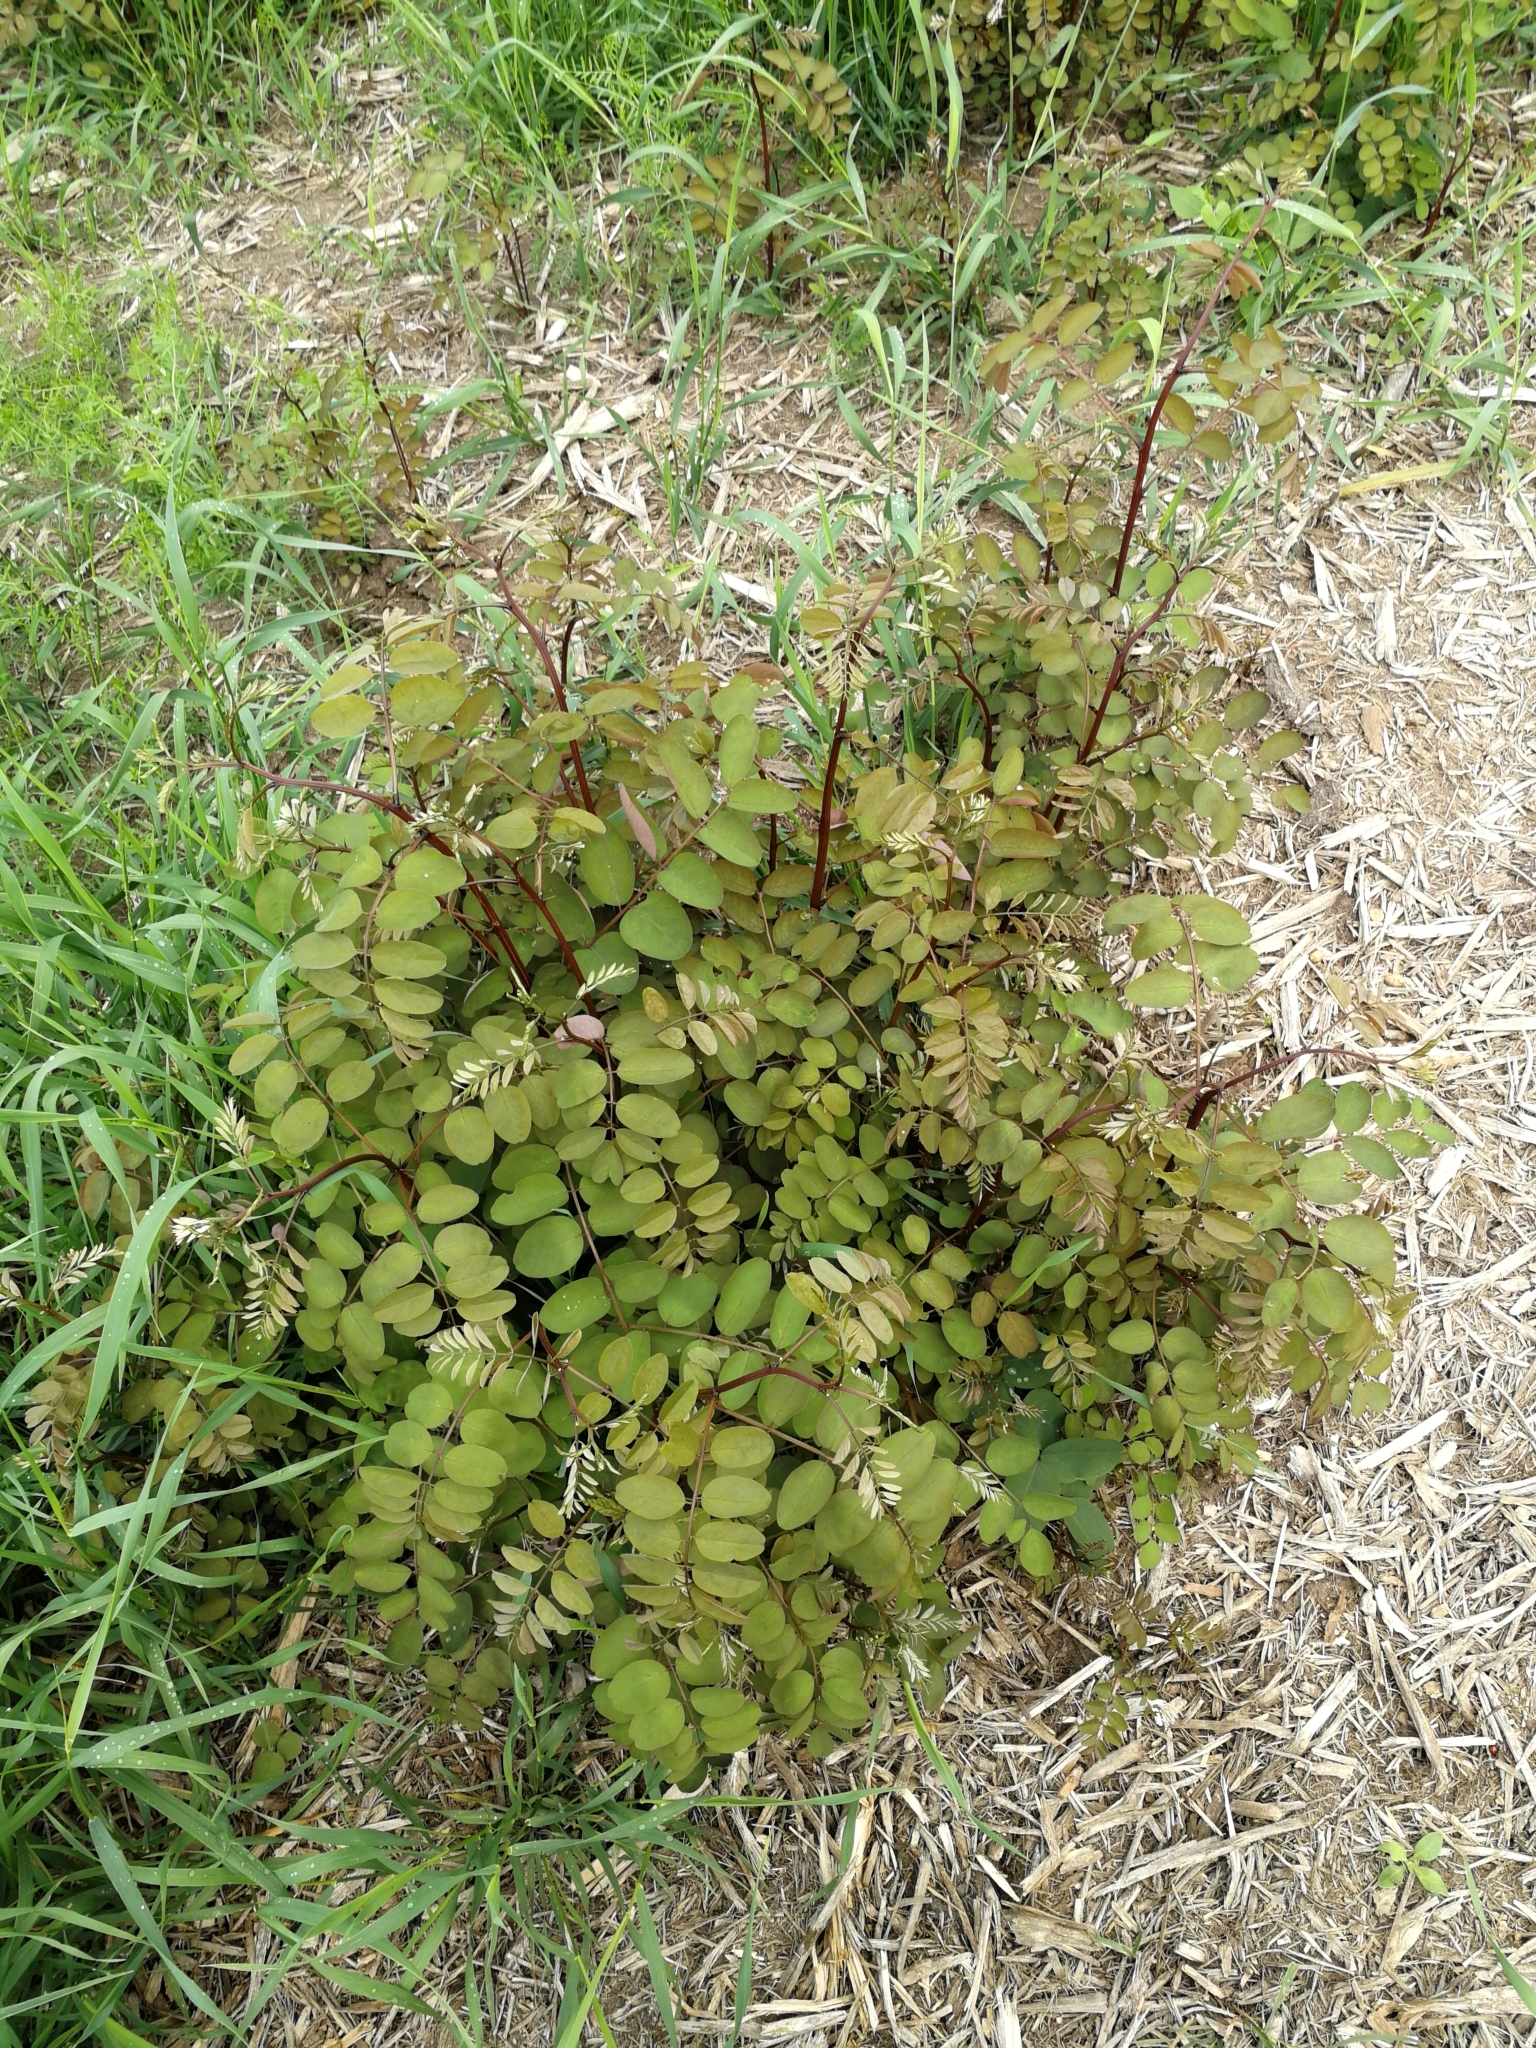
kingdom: Plantae
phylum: Tracheophyta
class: Magnoliopsida
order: Fabales
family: Fabaceae
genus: Robinia
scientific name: Robinia pseudoacacia
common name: Black locust
